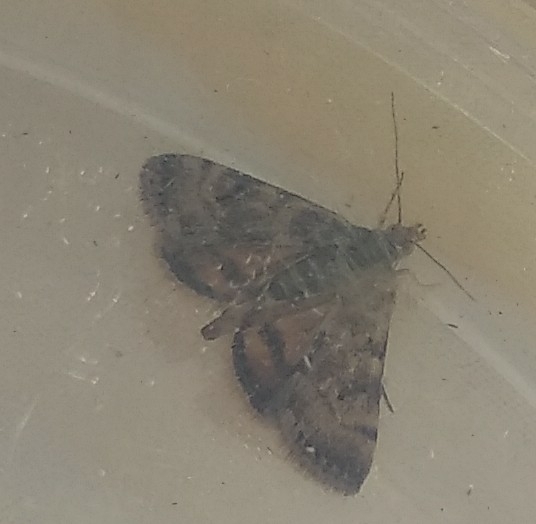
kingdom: Animalia
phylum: Arthropoda
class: Insecta
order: Lepidoptera
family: Crambidae
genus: Noctuelia
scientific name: Noctuelia Aporodes floralis
